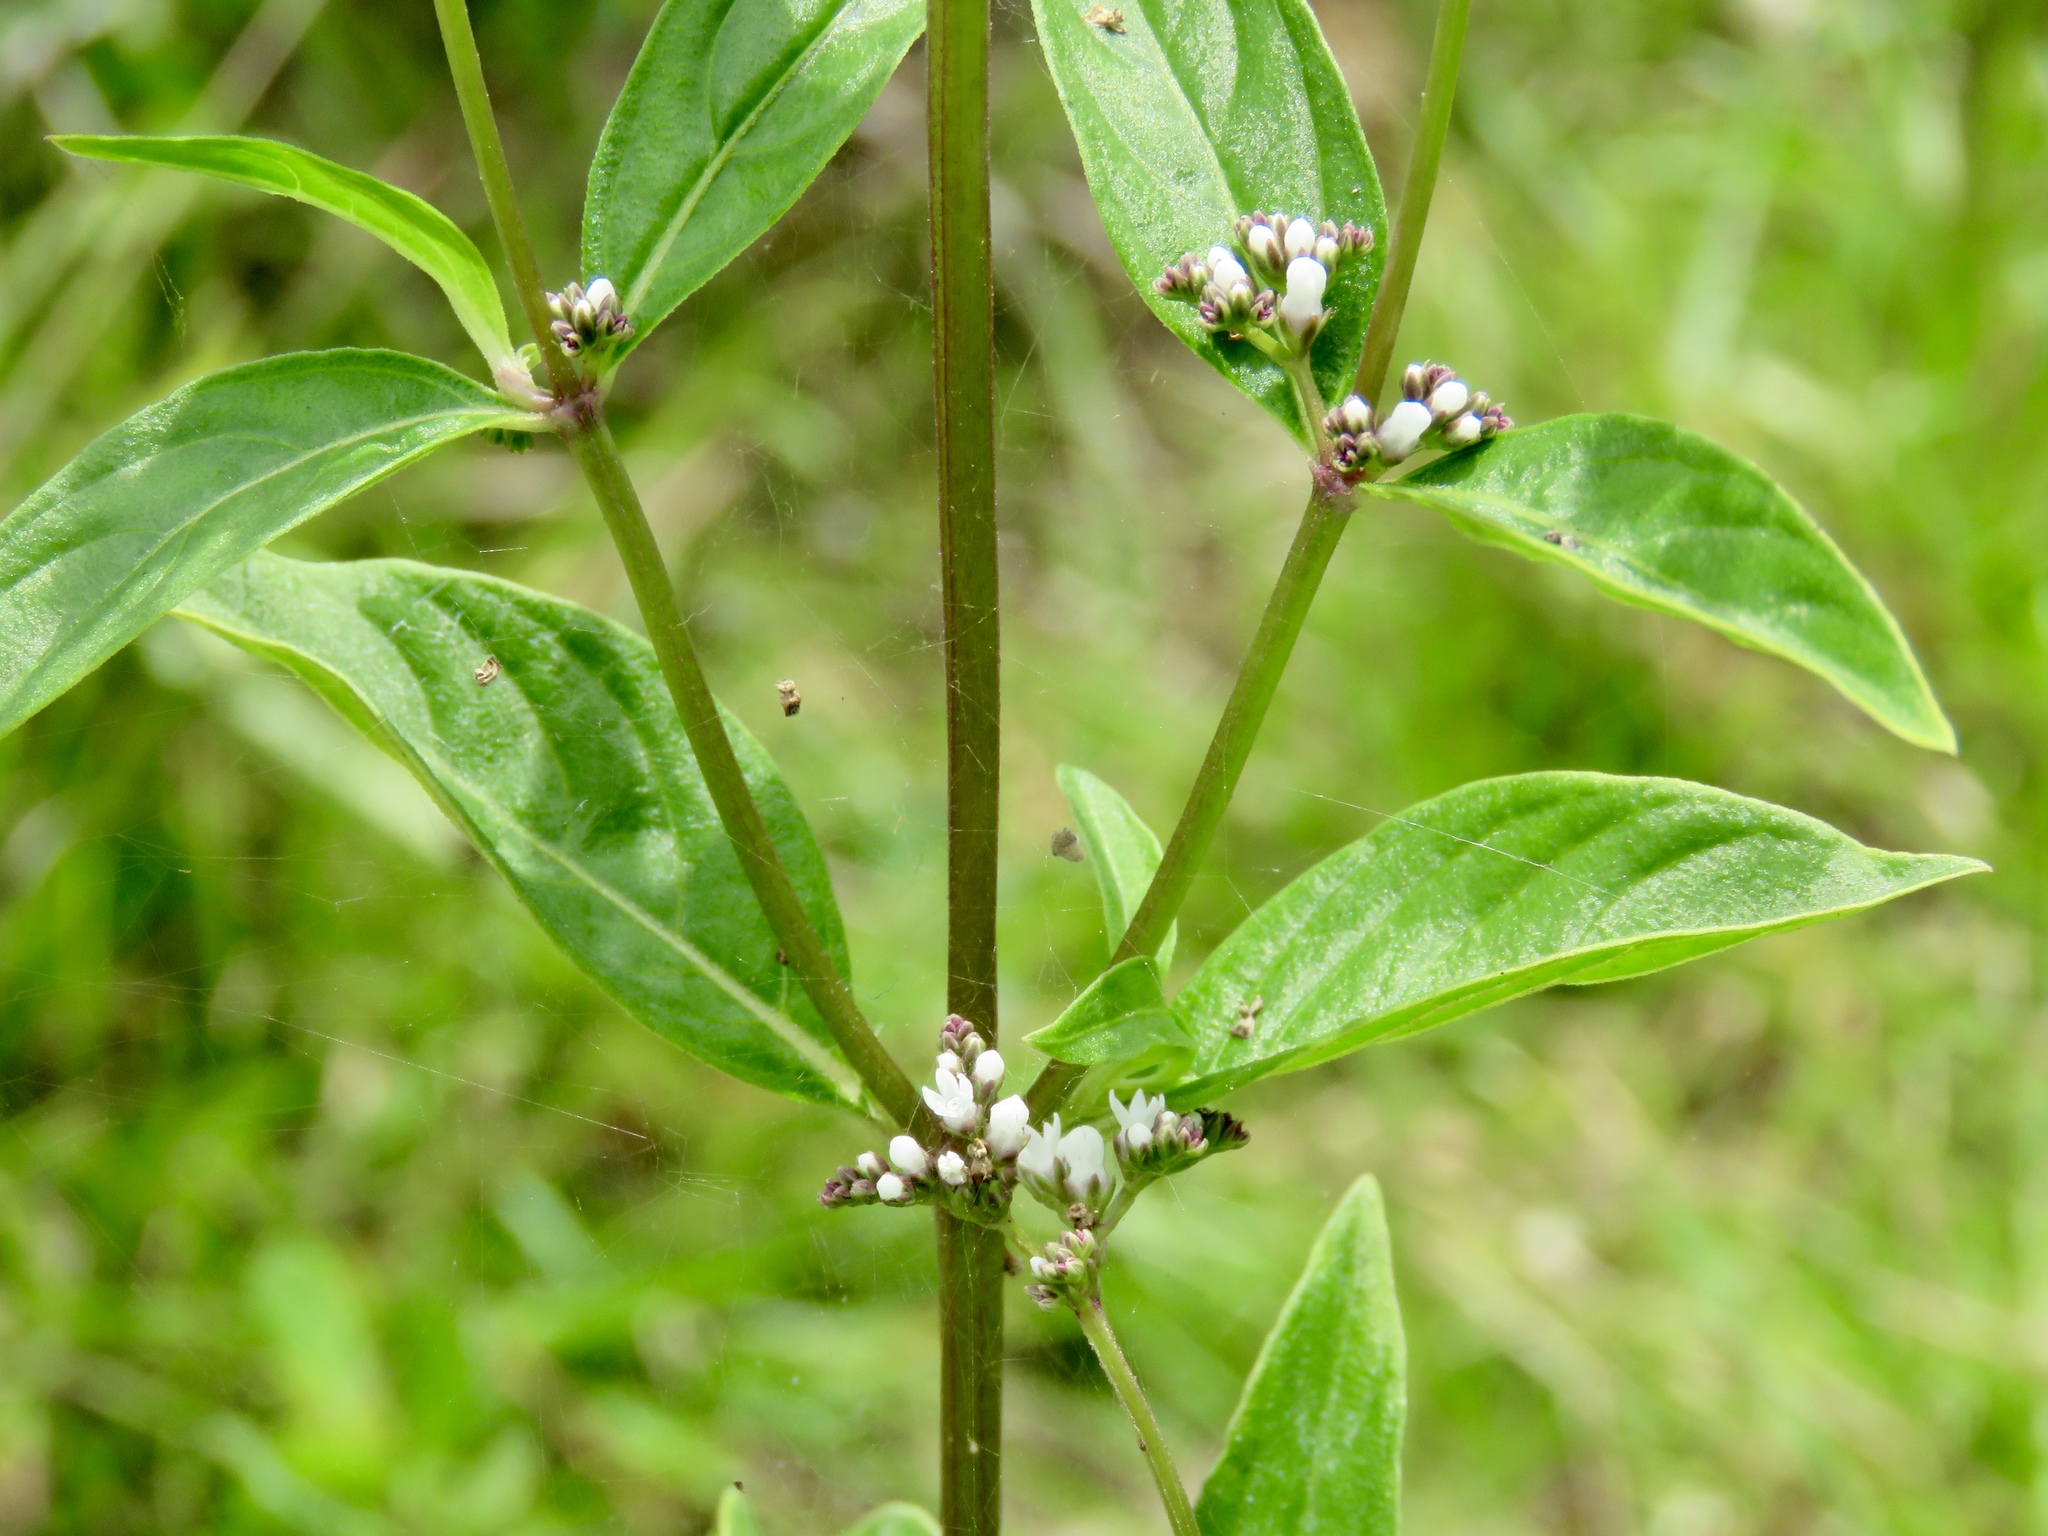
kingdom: Plantae
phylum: Tracheophyta
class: Magnoliopsida
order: Gentianales
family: Loganiaceae
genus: Mitreola
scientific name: Mitreola petiolata
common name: Lax hornpod
